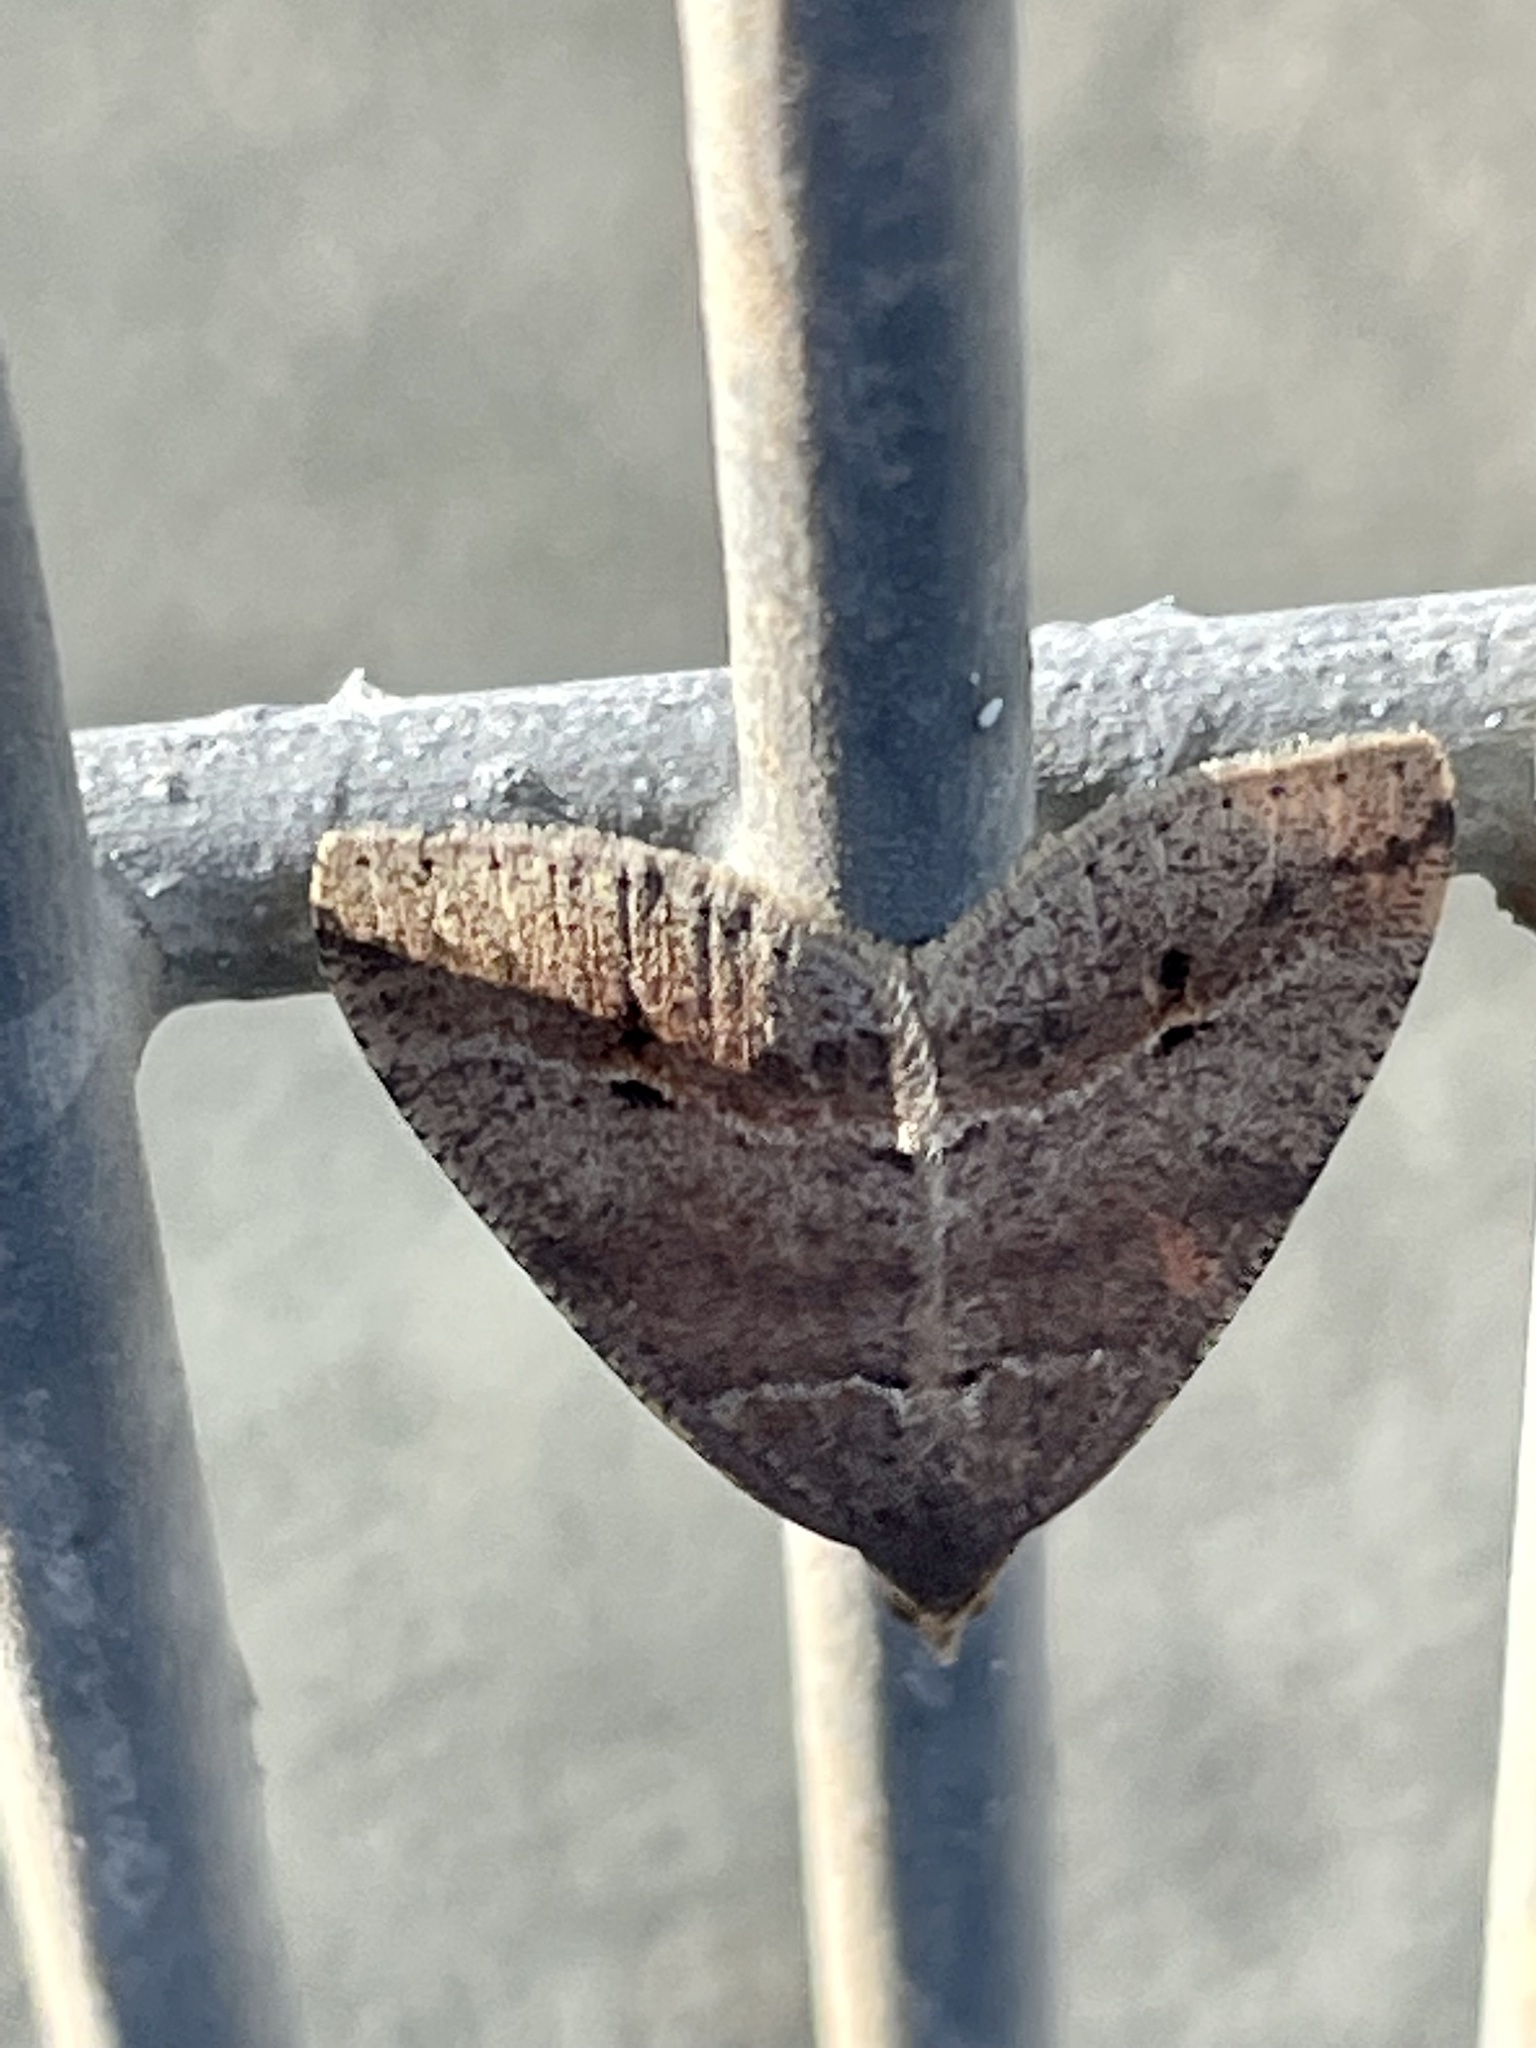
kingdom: Animalia
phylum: Arthropoda
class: Insecta
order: Lepidoptera
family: Geometridae
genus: Parosteodes
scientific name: Parosteodes fictiliaria
